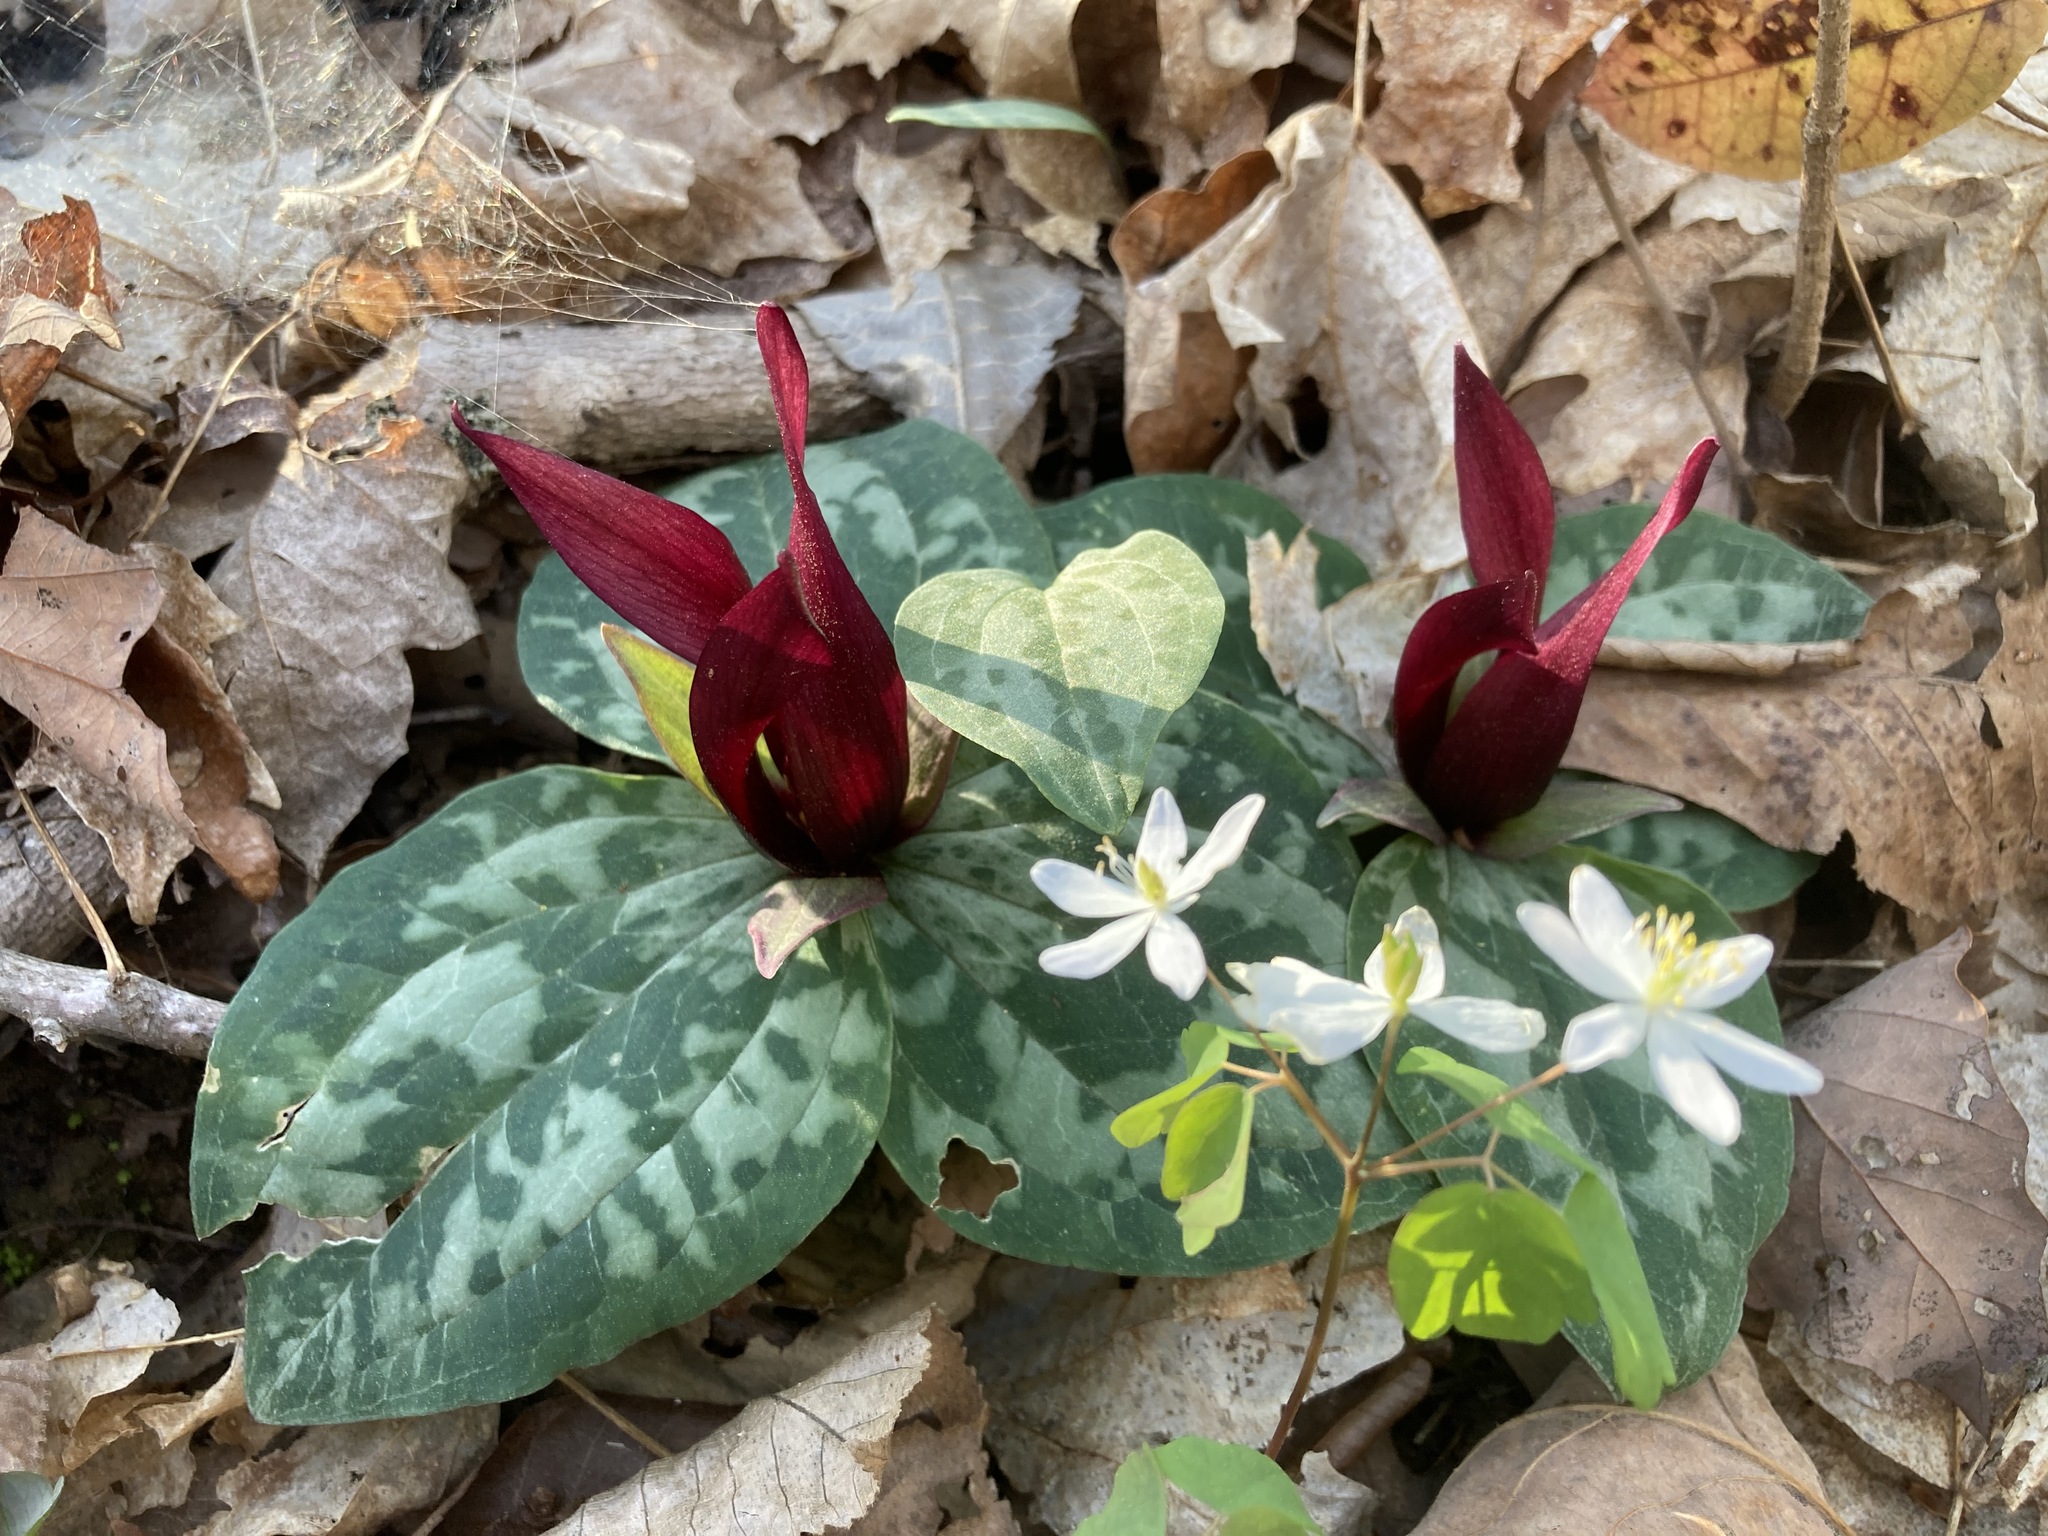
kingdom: Plantae
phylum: Tracheophyta
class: Liliopsida
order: Liliales
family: Melanthiaceae
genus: Trillium
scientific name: Trillium decumbens
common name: Decumbent trillium
